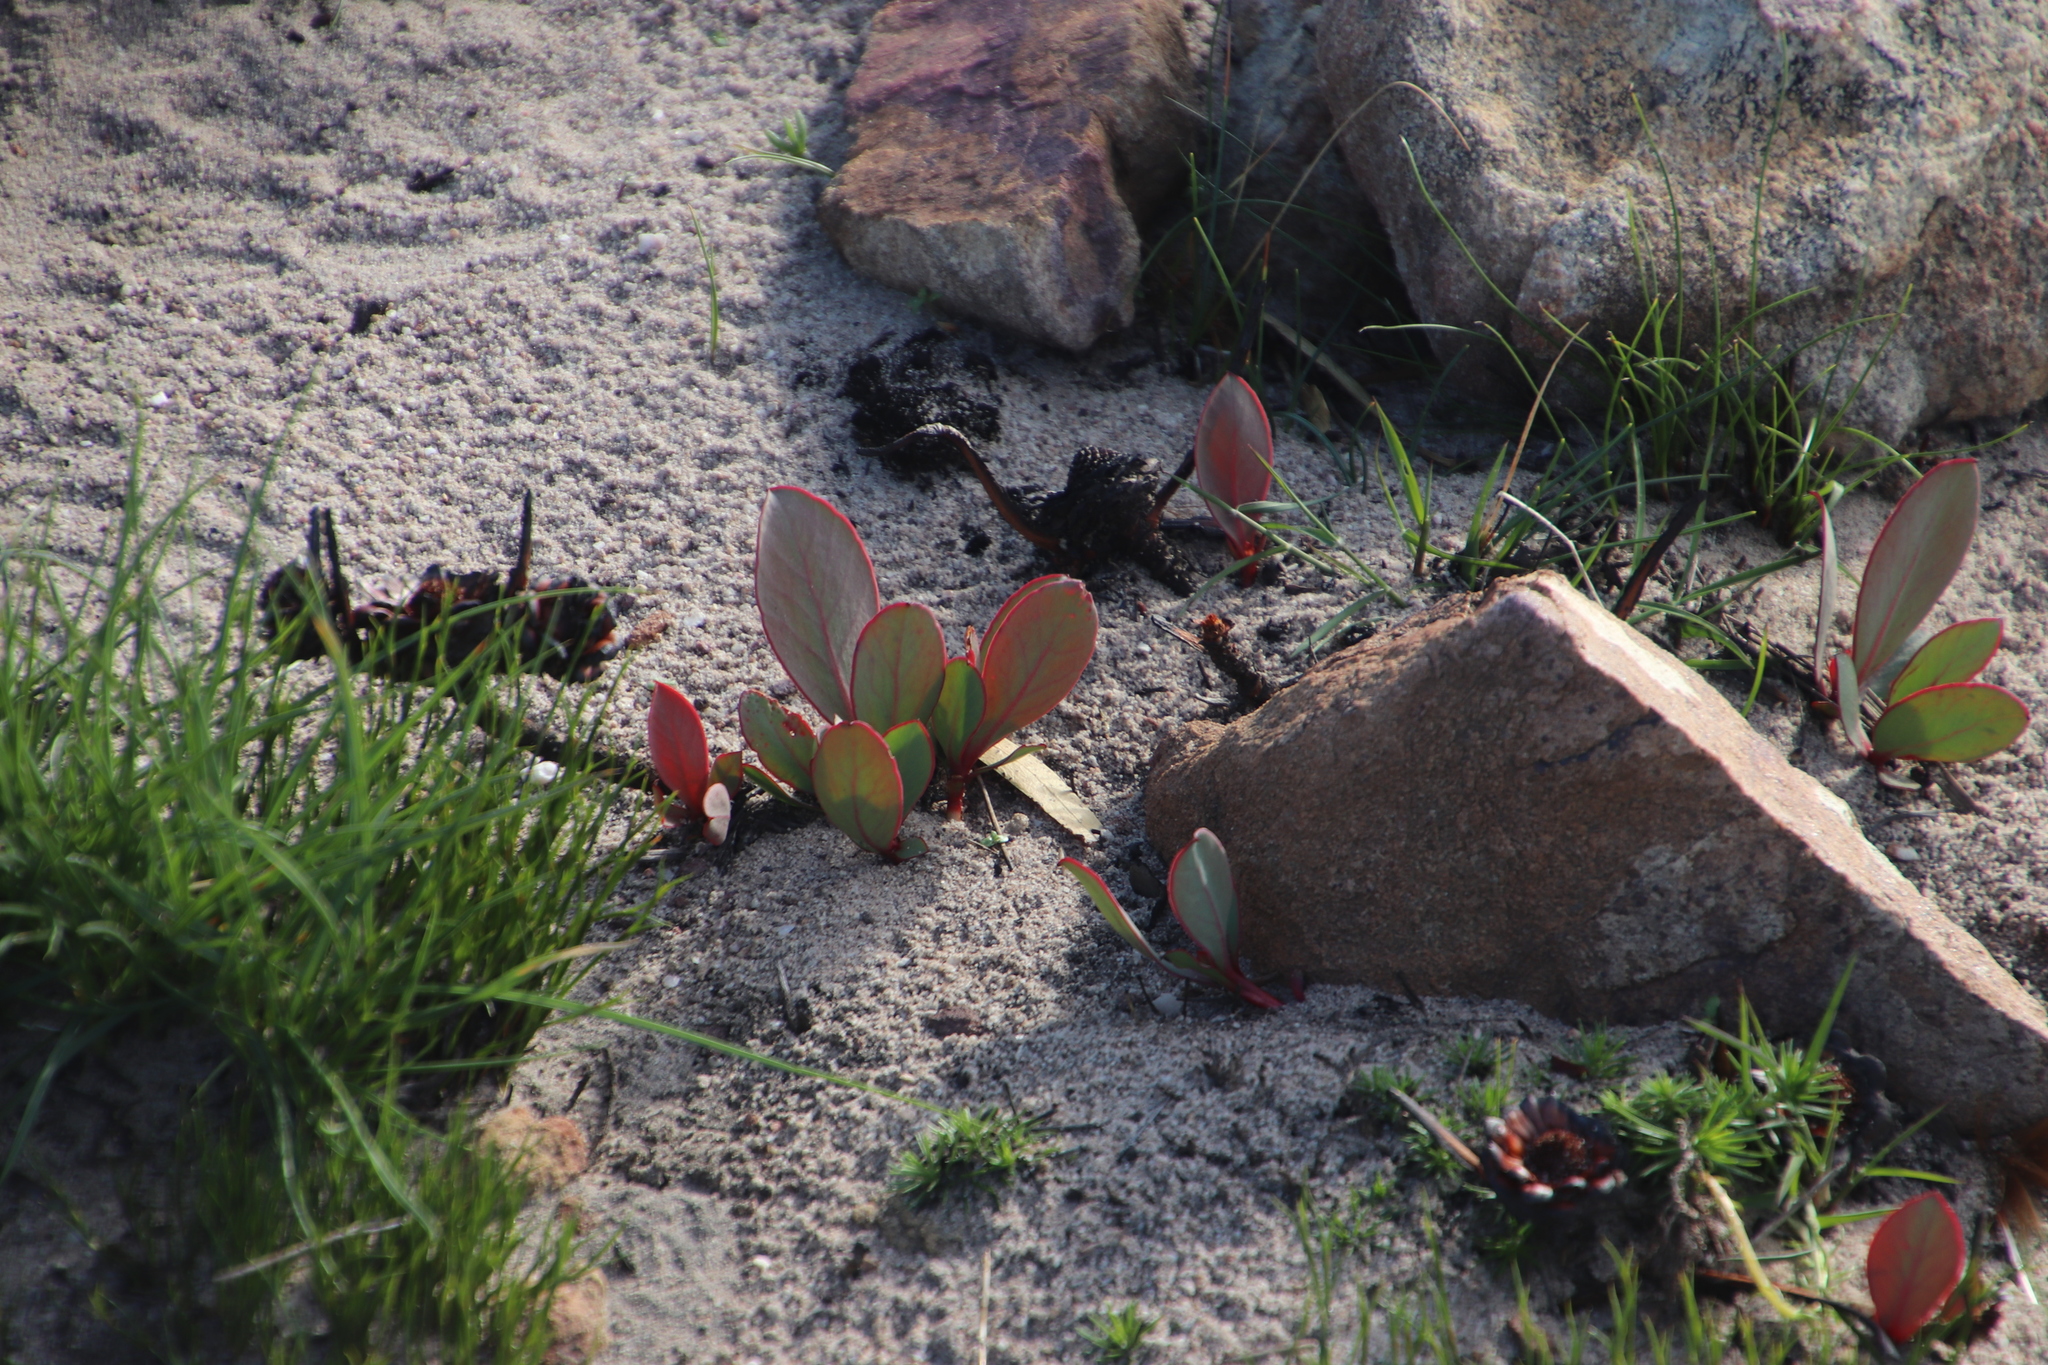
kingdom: Plantae
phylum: Tracheophyta
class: Magnoliopsida
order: Proteales
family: Proteaceae
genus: Protea
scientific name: Protea acaulos
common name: Common ground sugarbush
